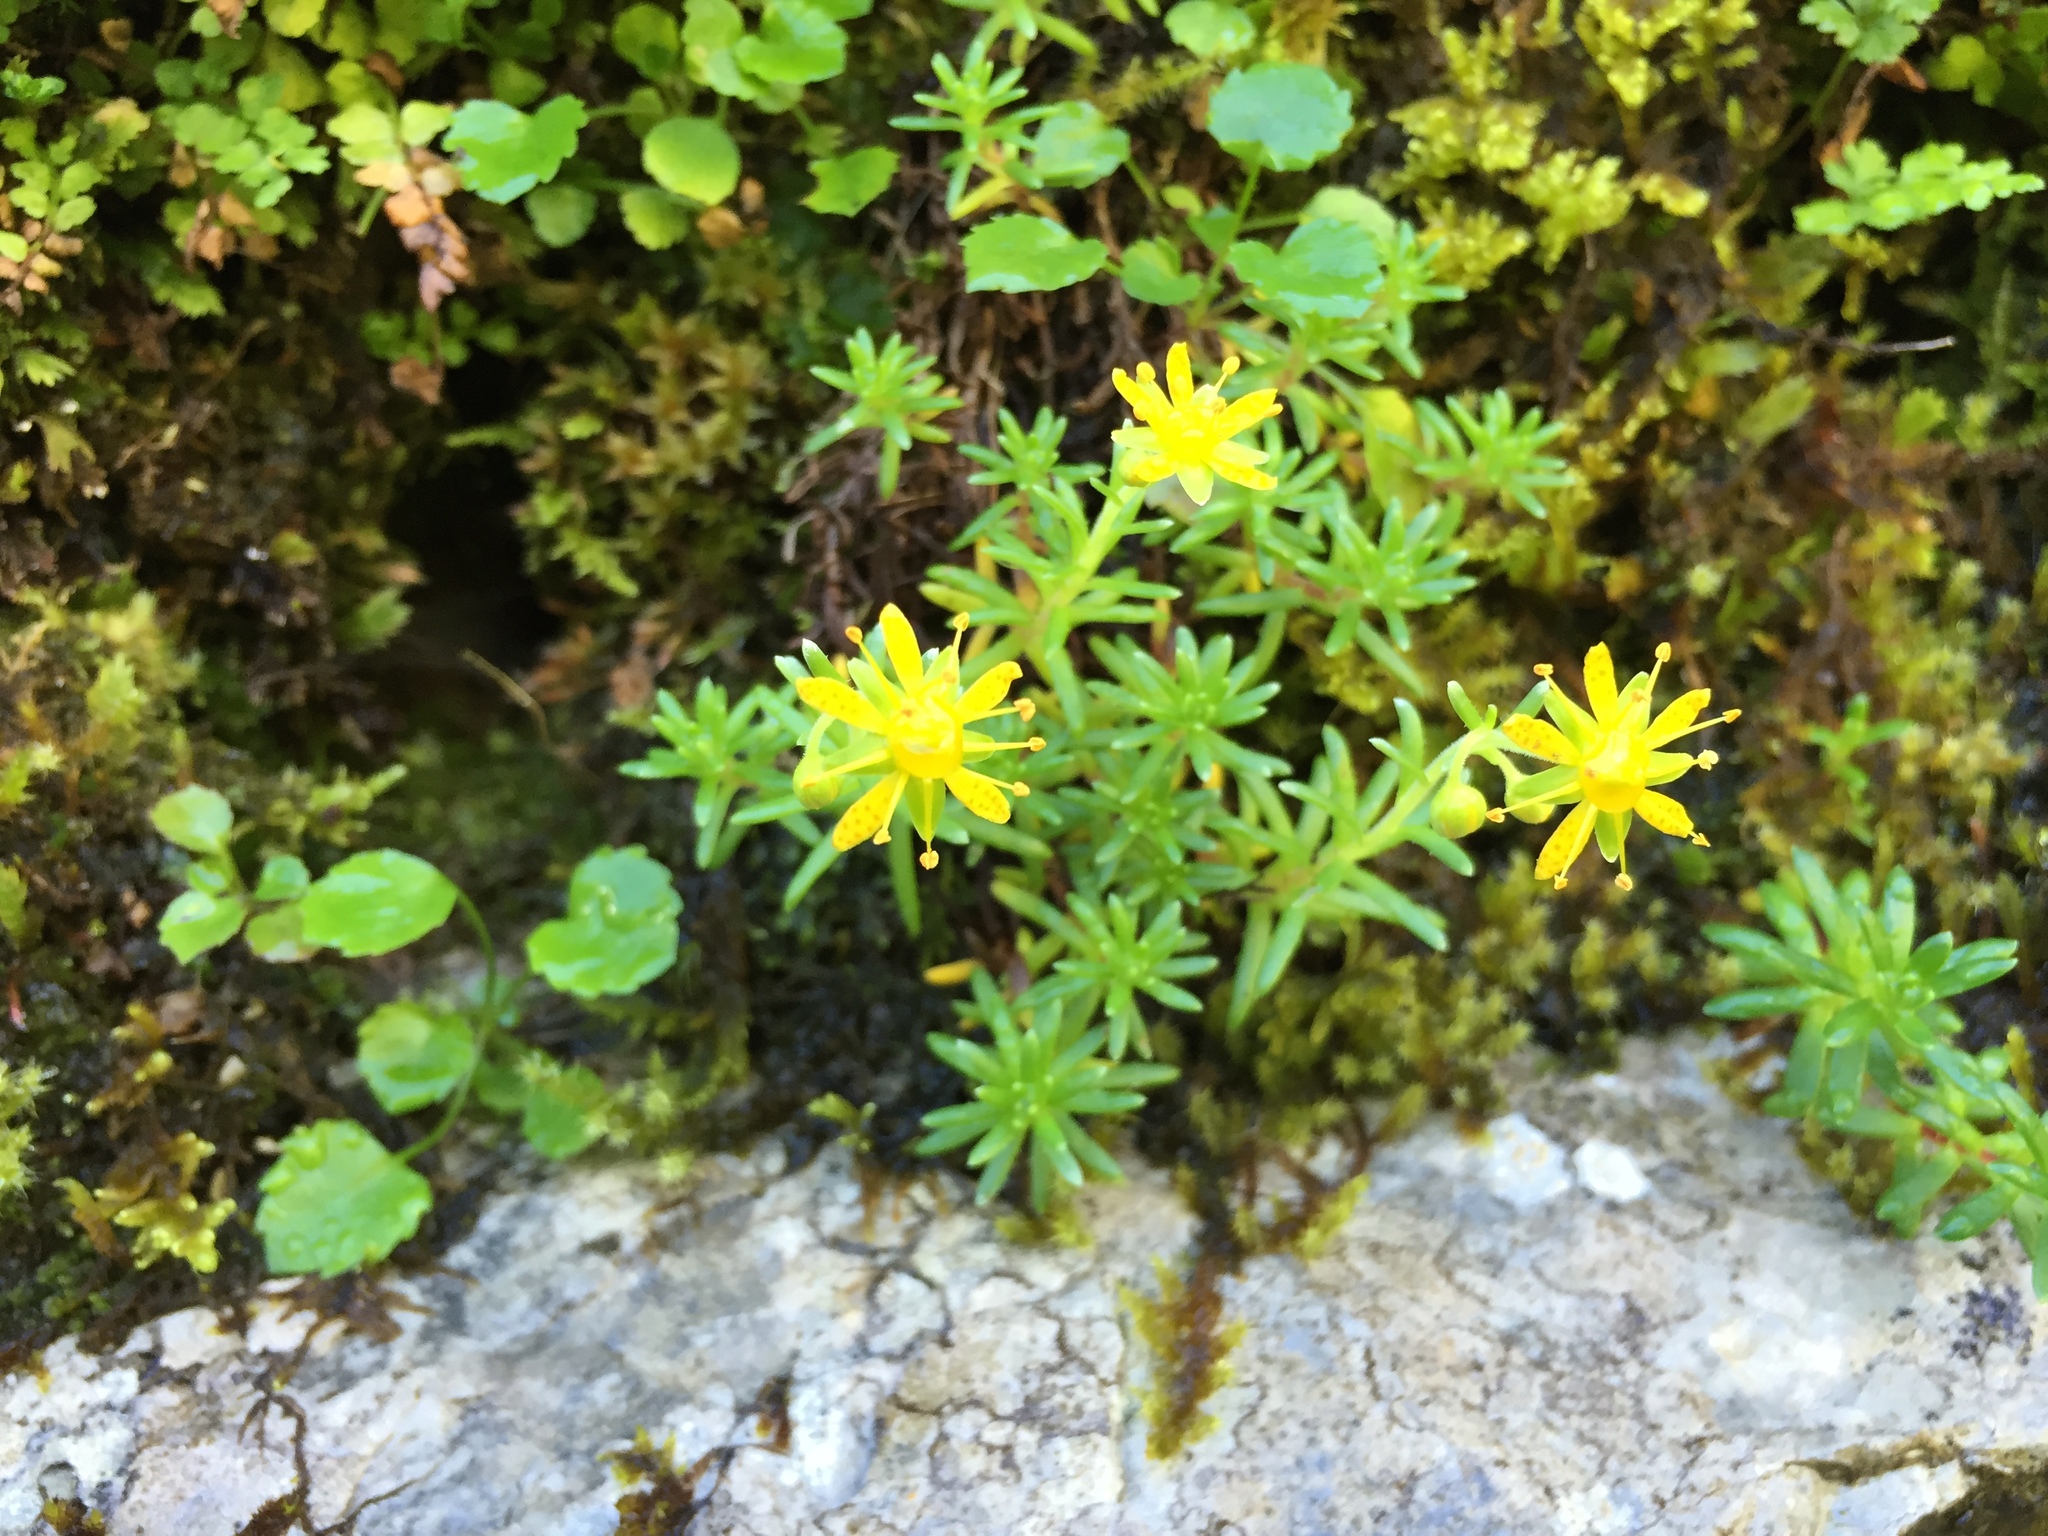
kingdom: Plantae
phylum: Tracheophyta
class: Magnoliopsida
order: Saxifragales
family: Saxifragaceae
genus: Saxifraga
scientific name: Saxifraga aizoides
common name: Yellow mountain saxifrage
